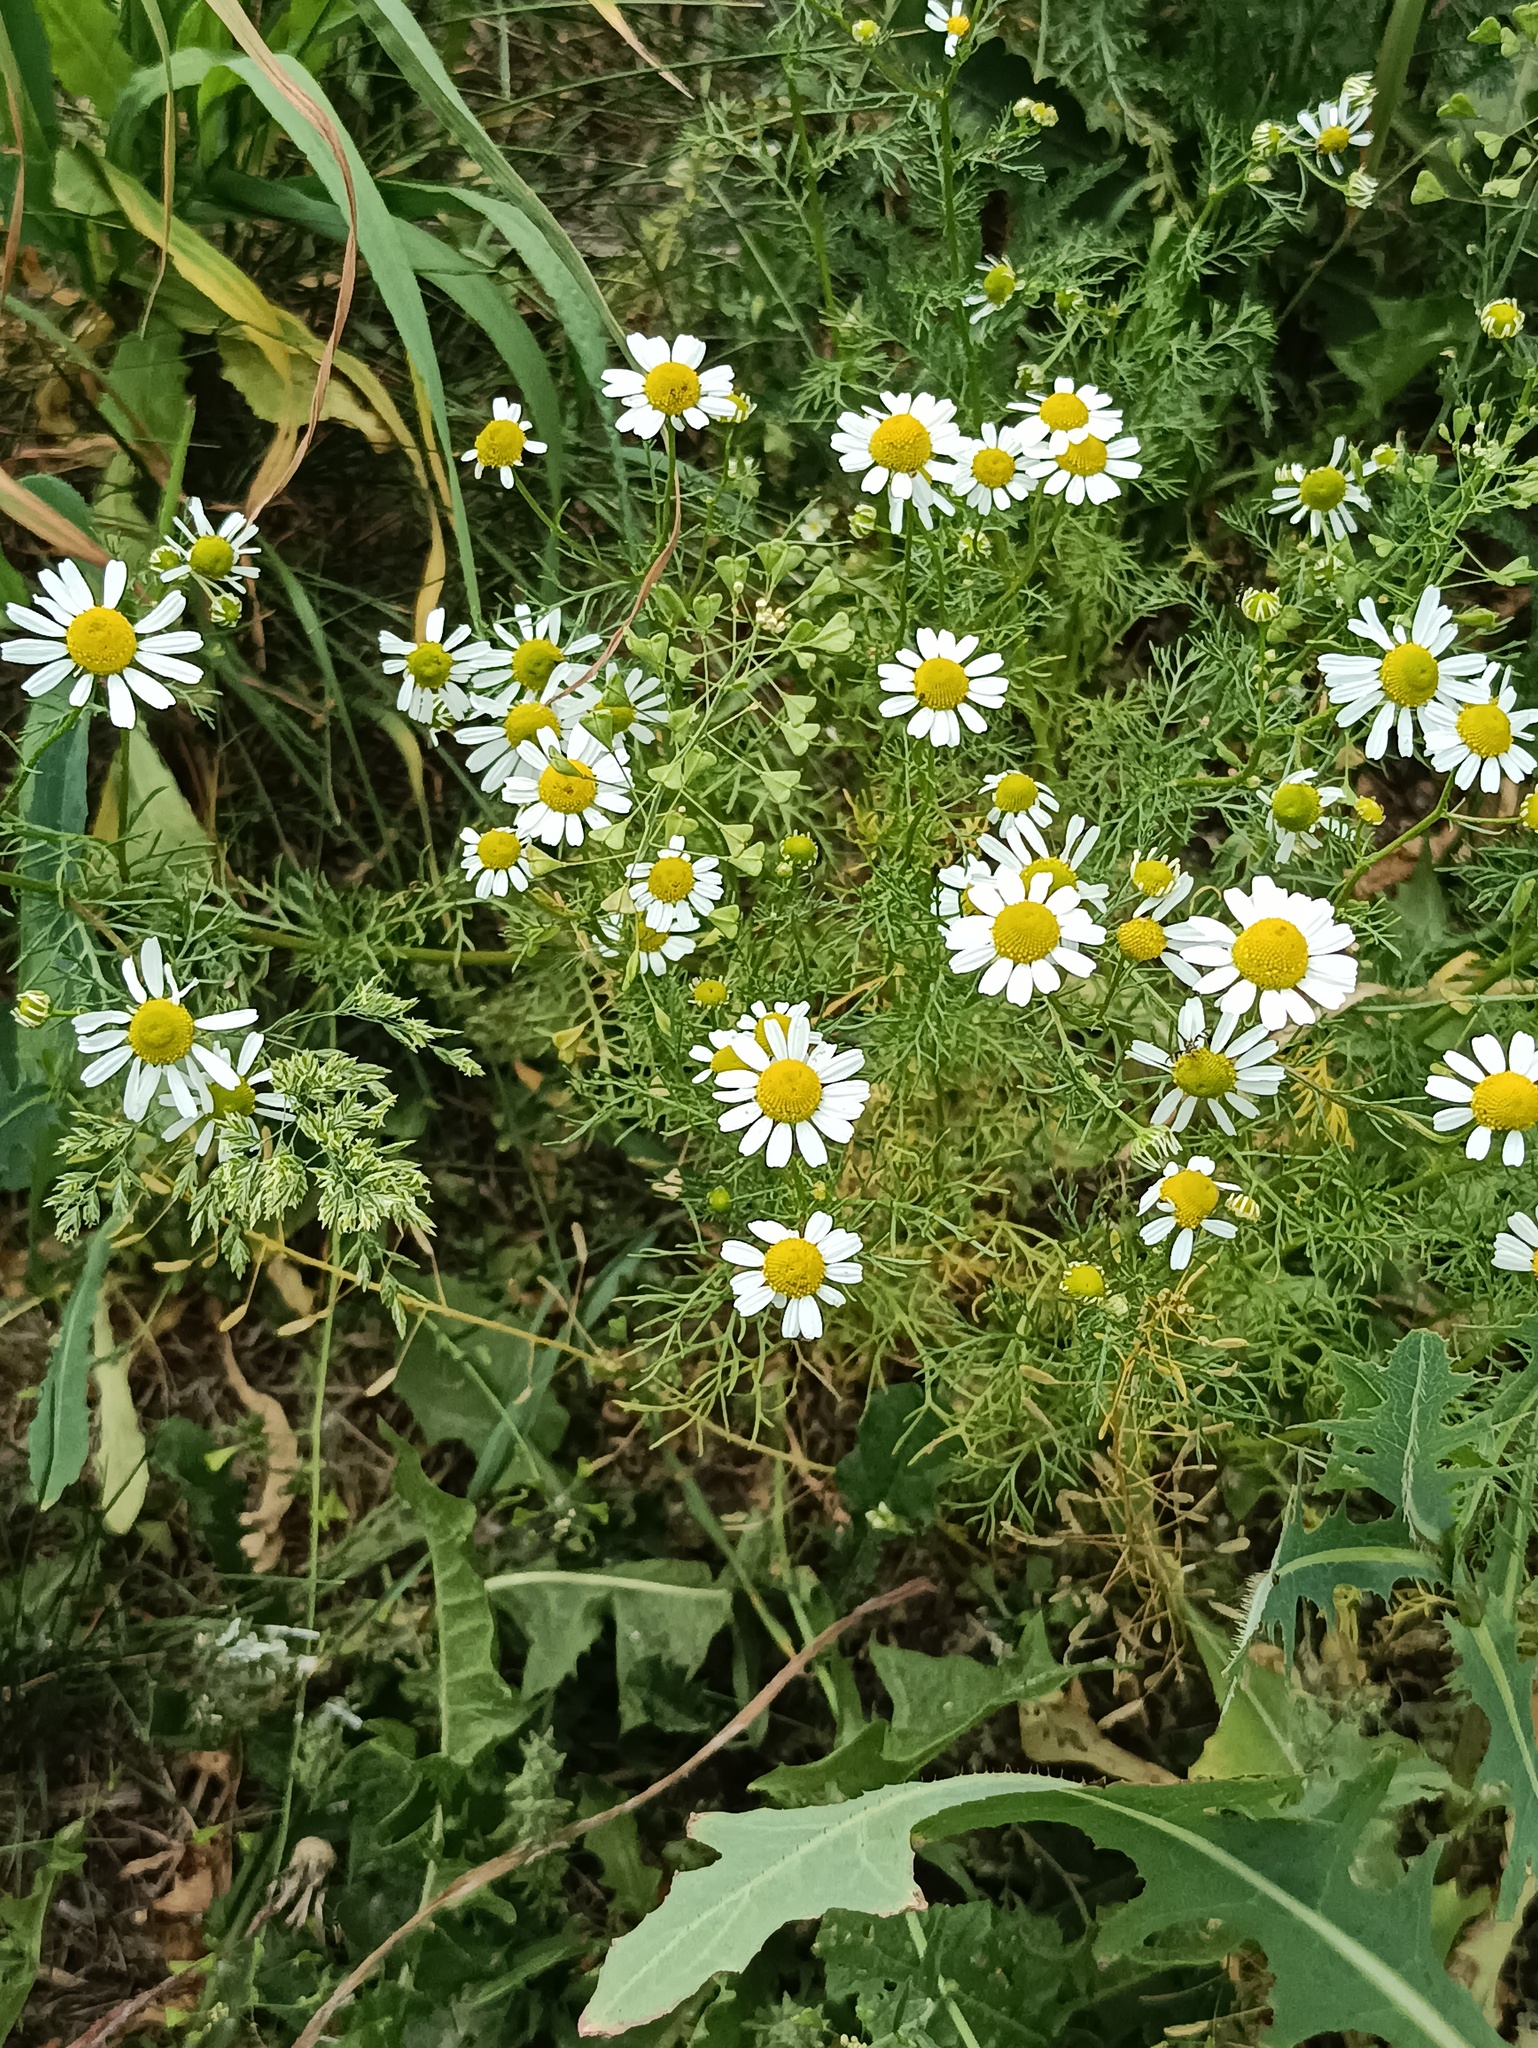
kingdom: Plantae
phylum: Tracheophyta
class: Magnoliopsida
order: Asterales
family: Asteraceae
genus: Tripleurospermum
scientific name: Tripleurospermum inodorum
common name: Scentless mayweed
